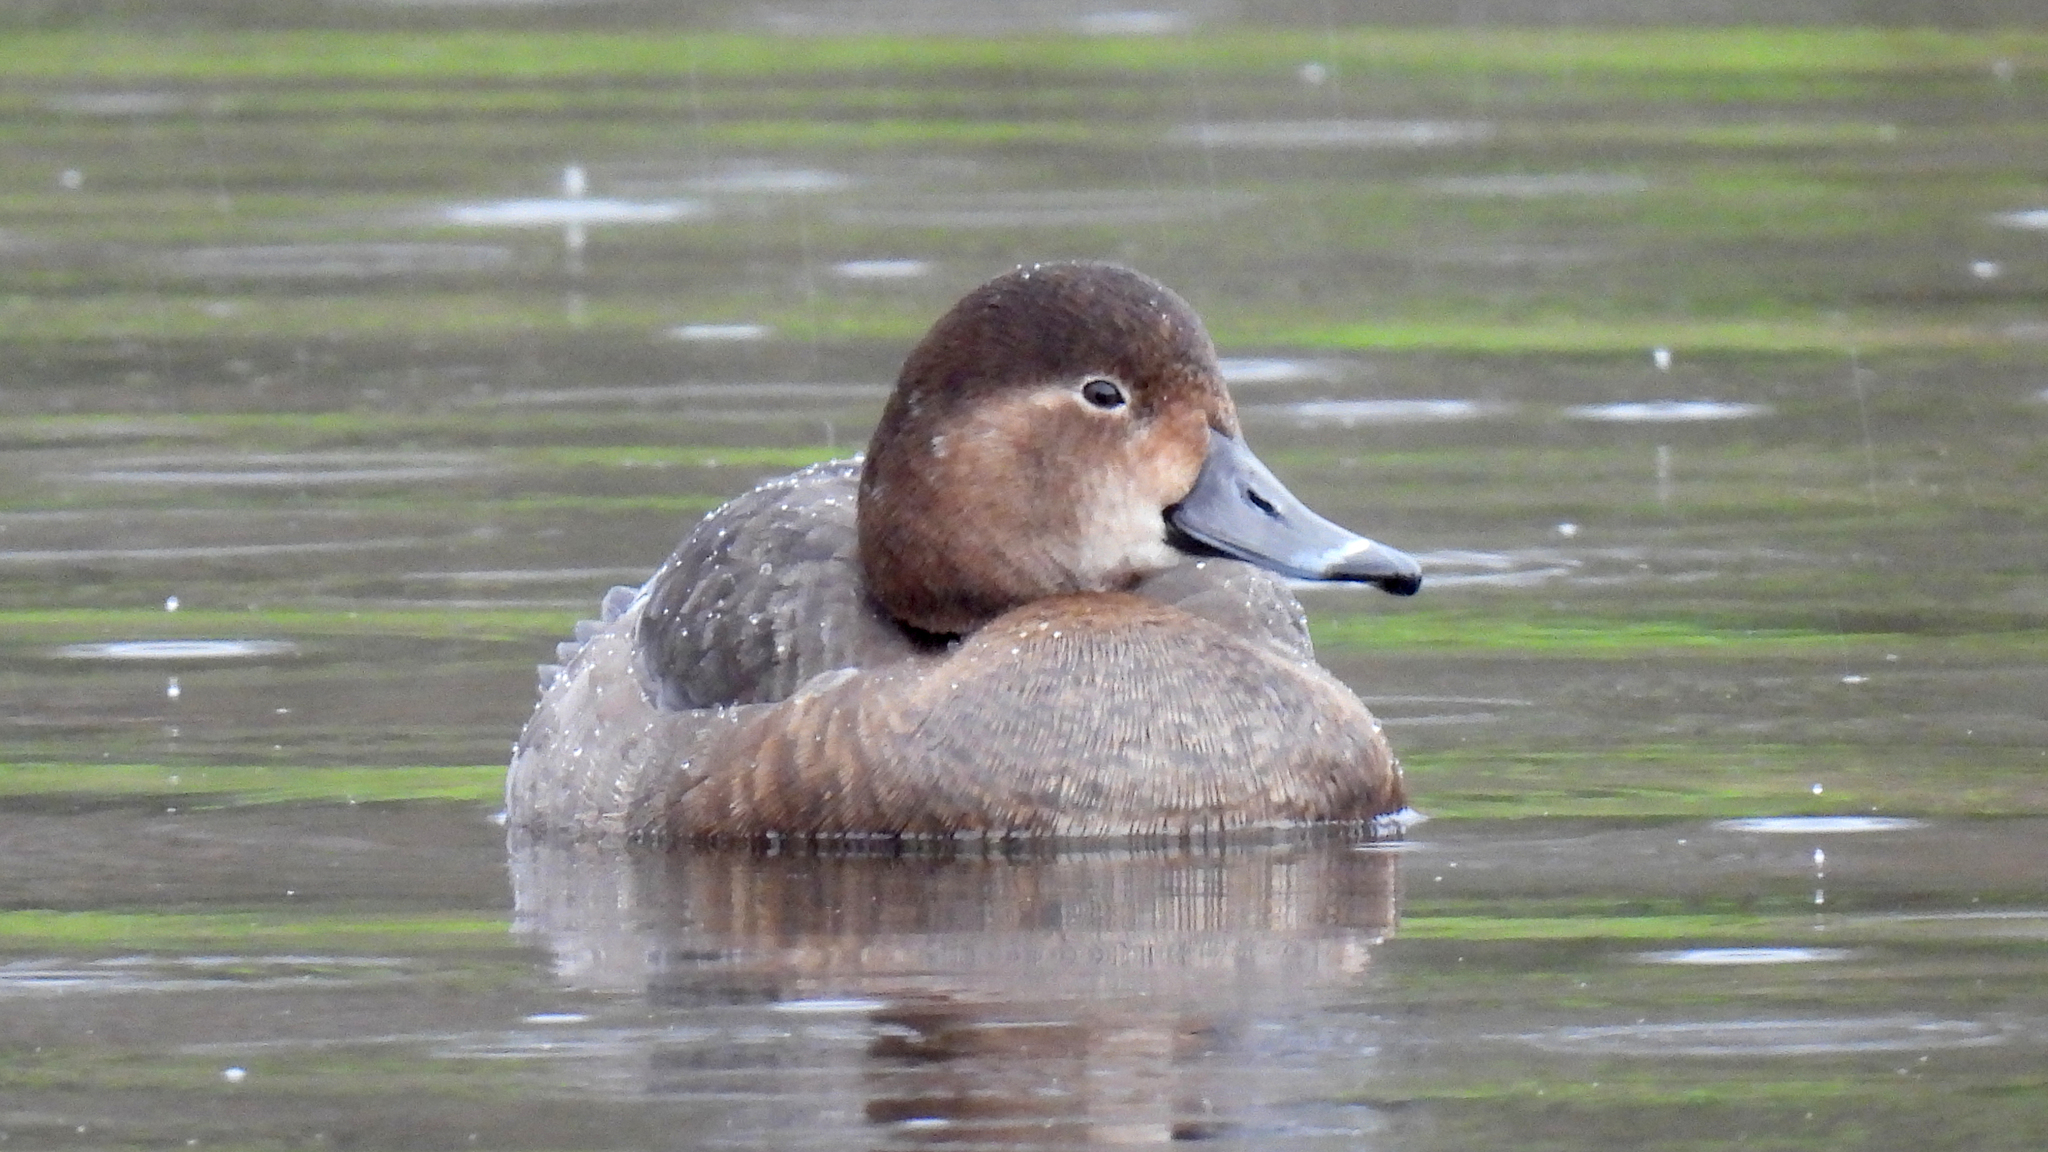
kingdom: Animalia
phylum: Chordata
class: Aves
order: Anseriformes
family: Anatidae
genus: Aythya
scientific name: Aythya americana
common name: Redhead
